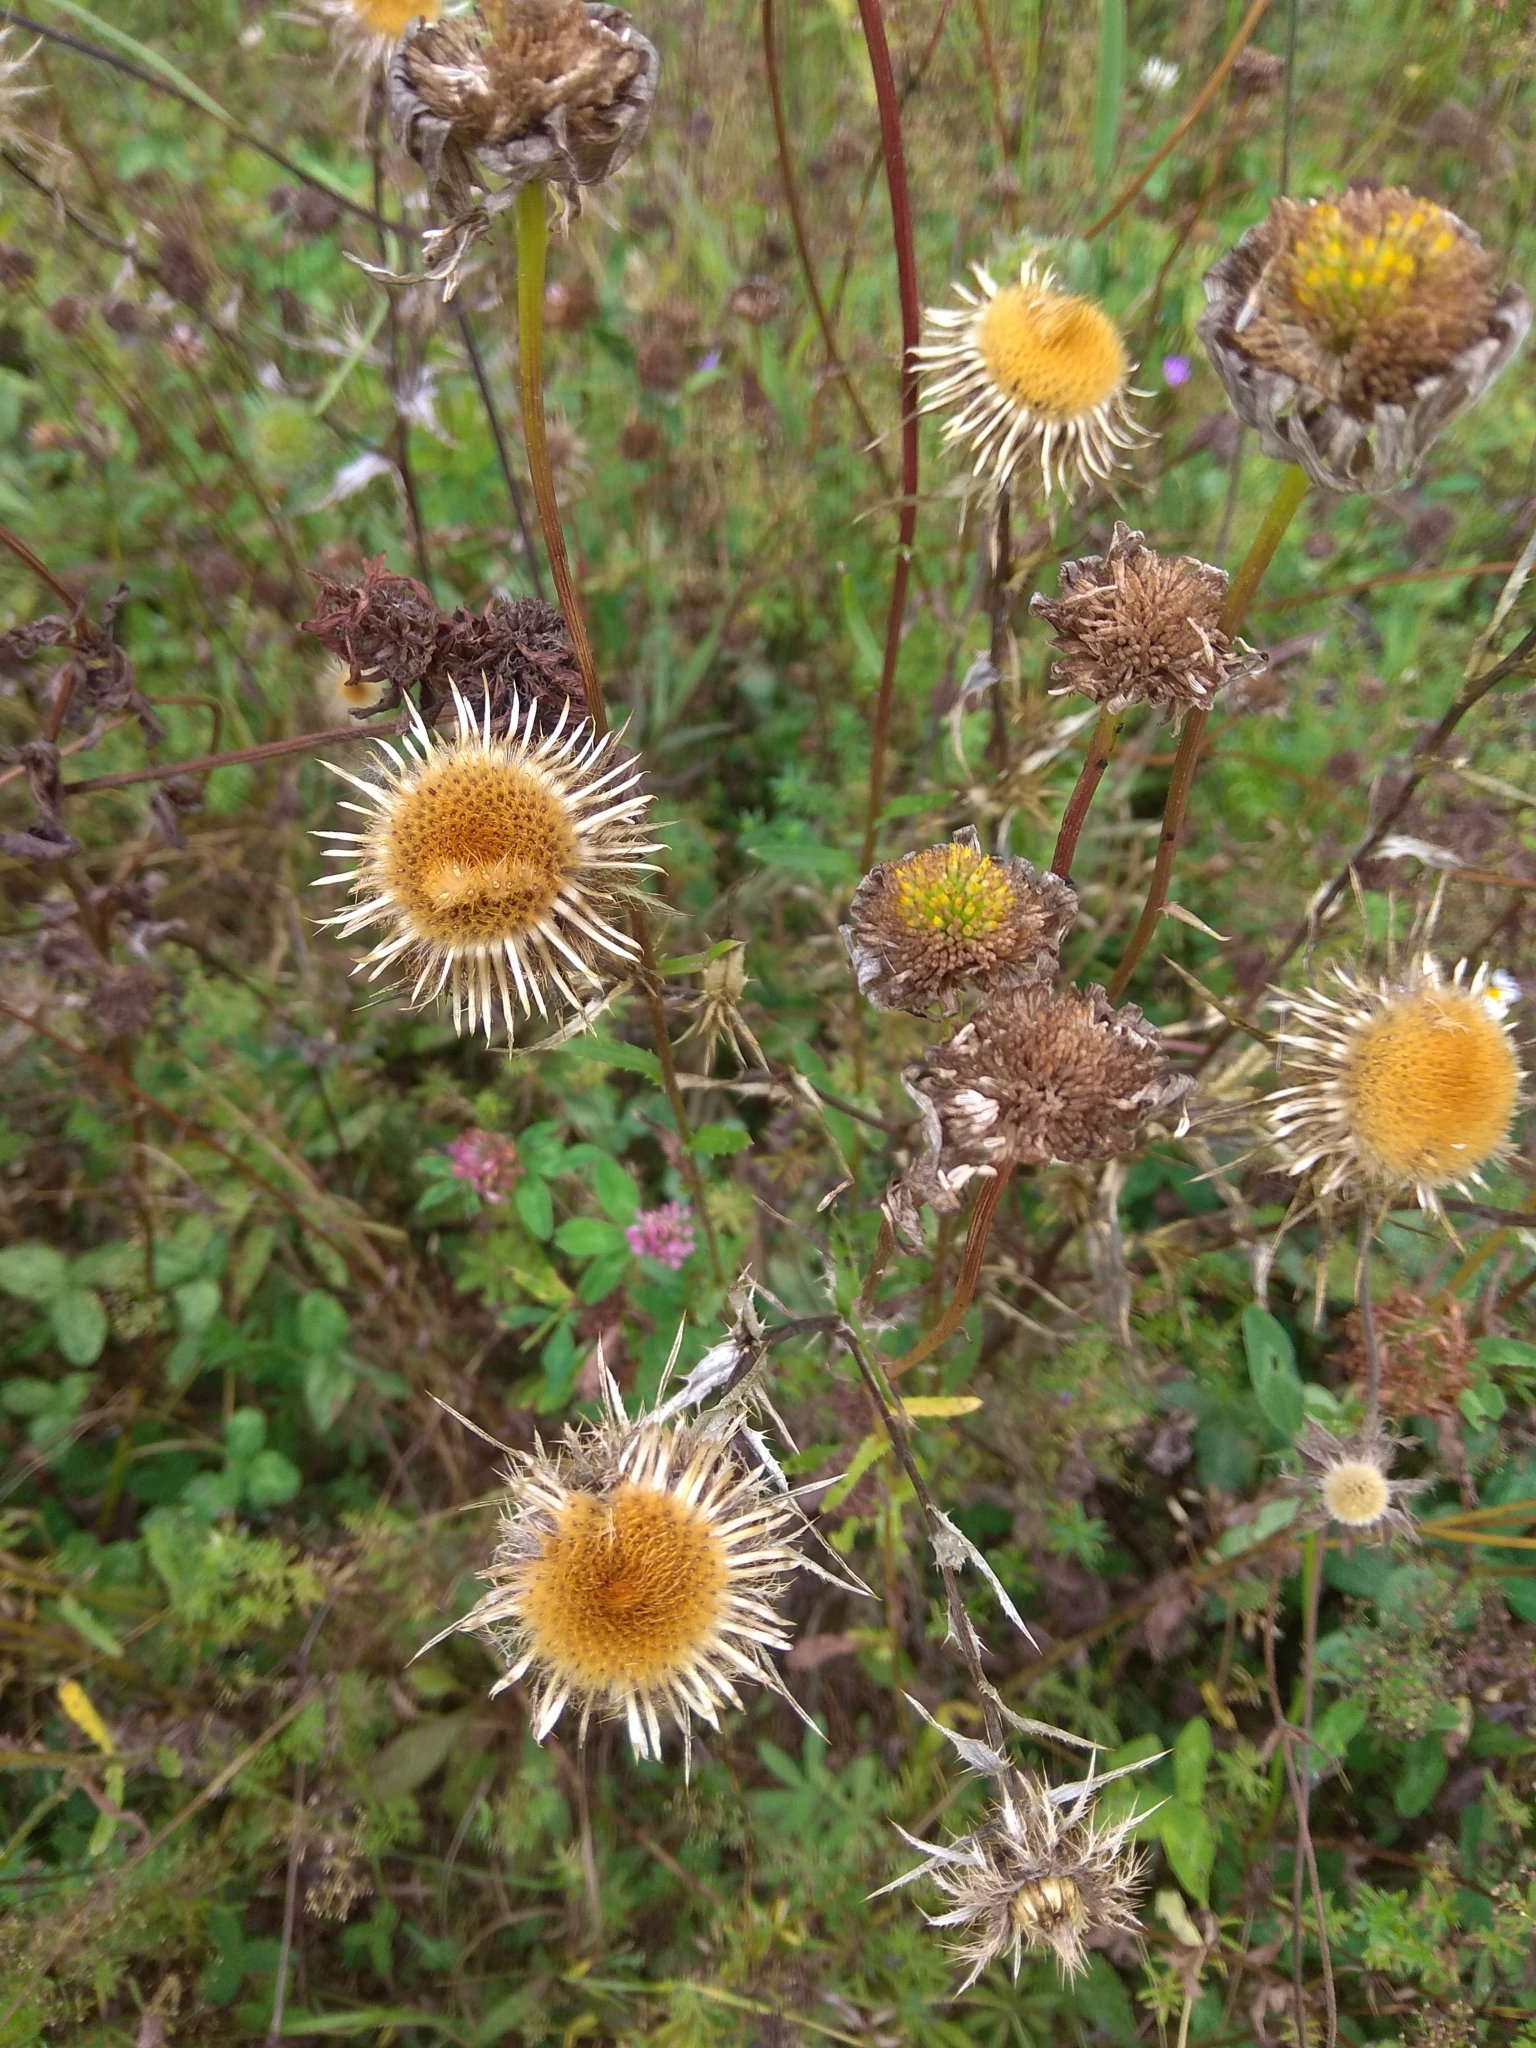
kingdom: Plantae
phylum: Tracheophyta
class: Magnoliopsida
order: Asterales
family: Asteraceae
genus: Carlina
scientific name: Carlina biebersteinii
